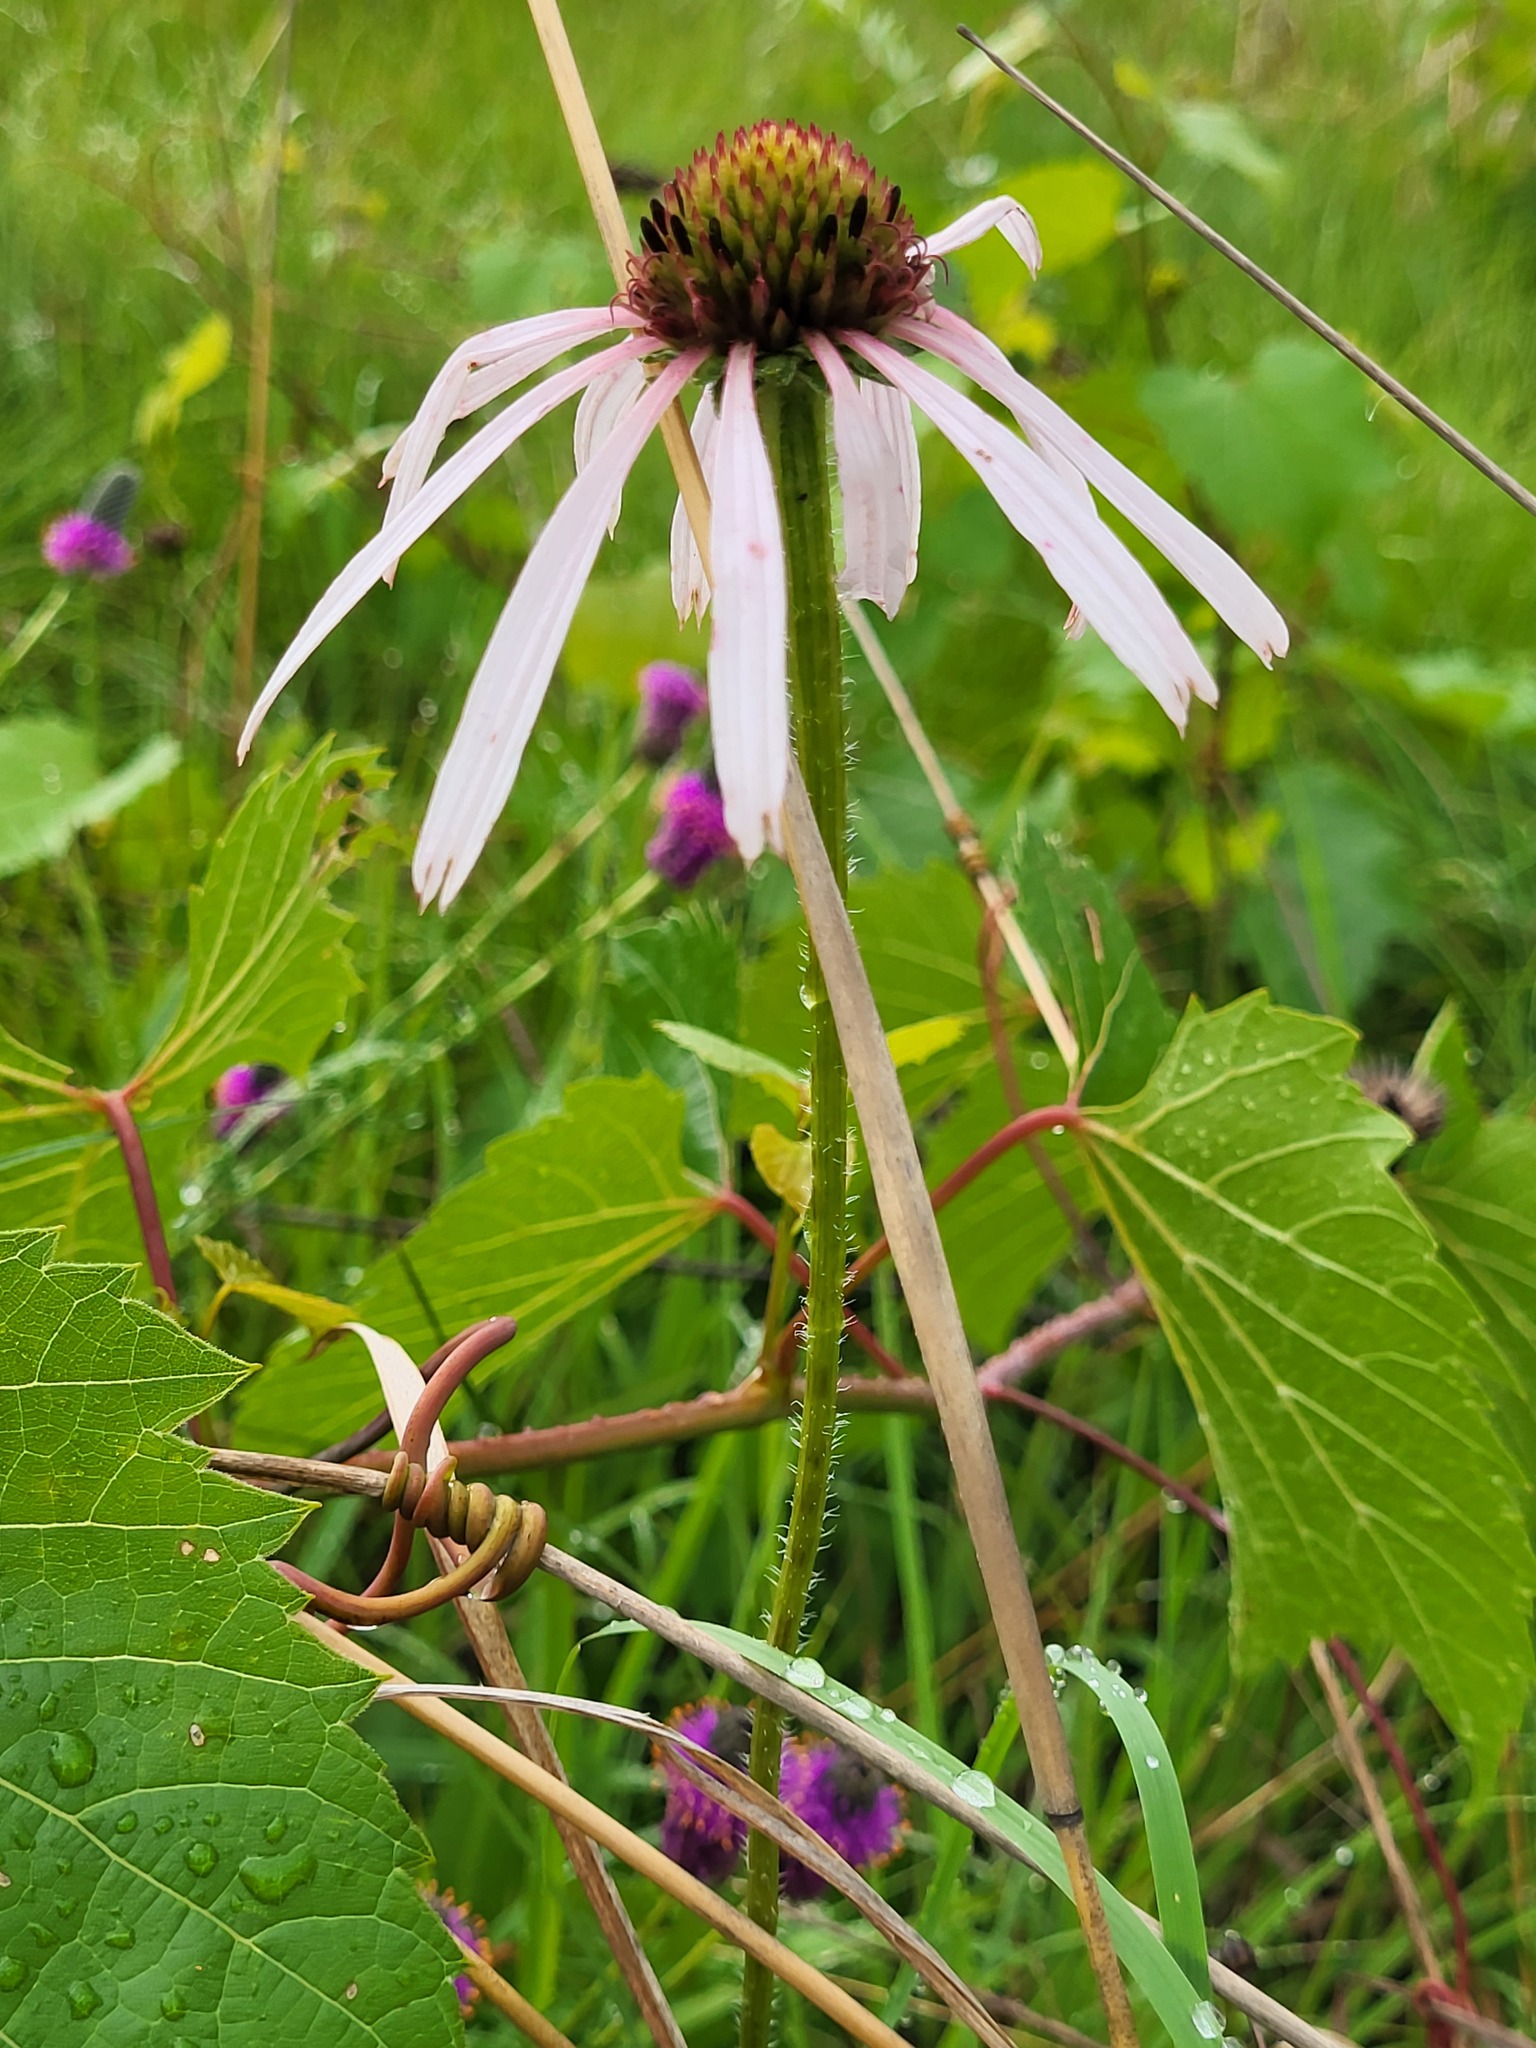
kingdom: Plantae
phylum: Tracheophyta
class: Magnoliopsida
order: Asterales
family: Asteraceae
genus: Echinacea
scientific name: Echinacea pallida
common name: Pale echinacea
